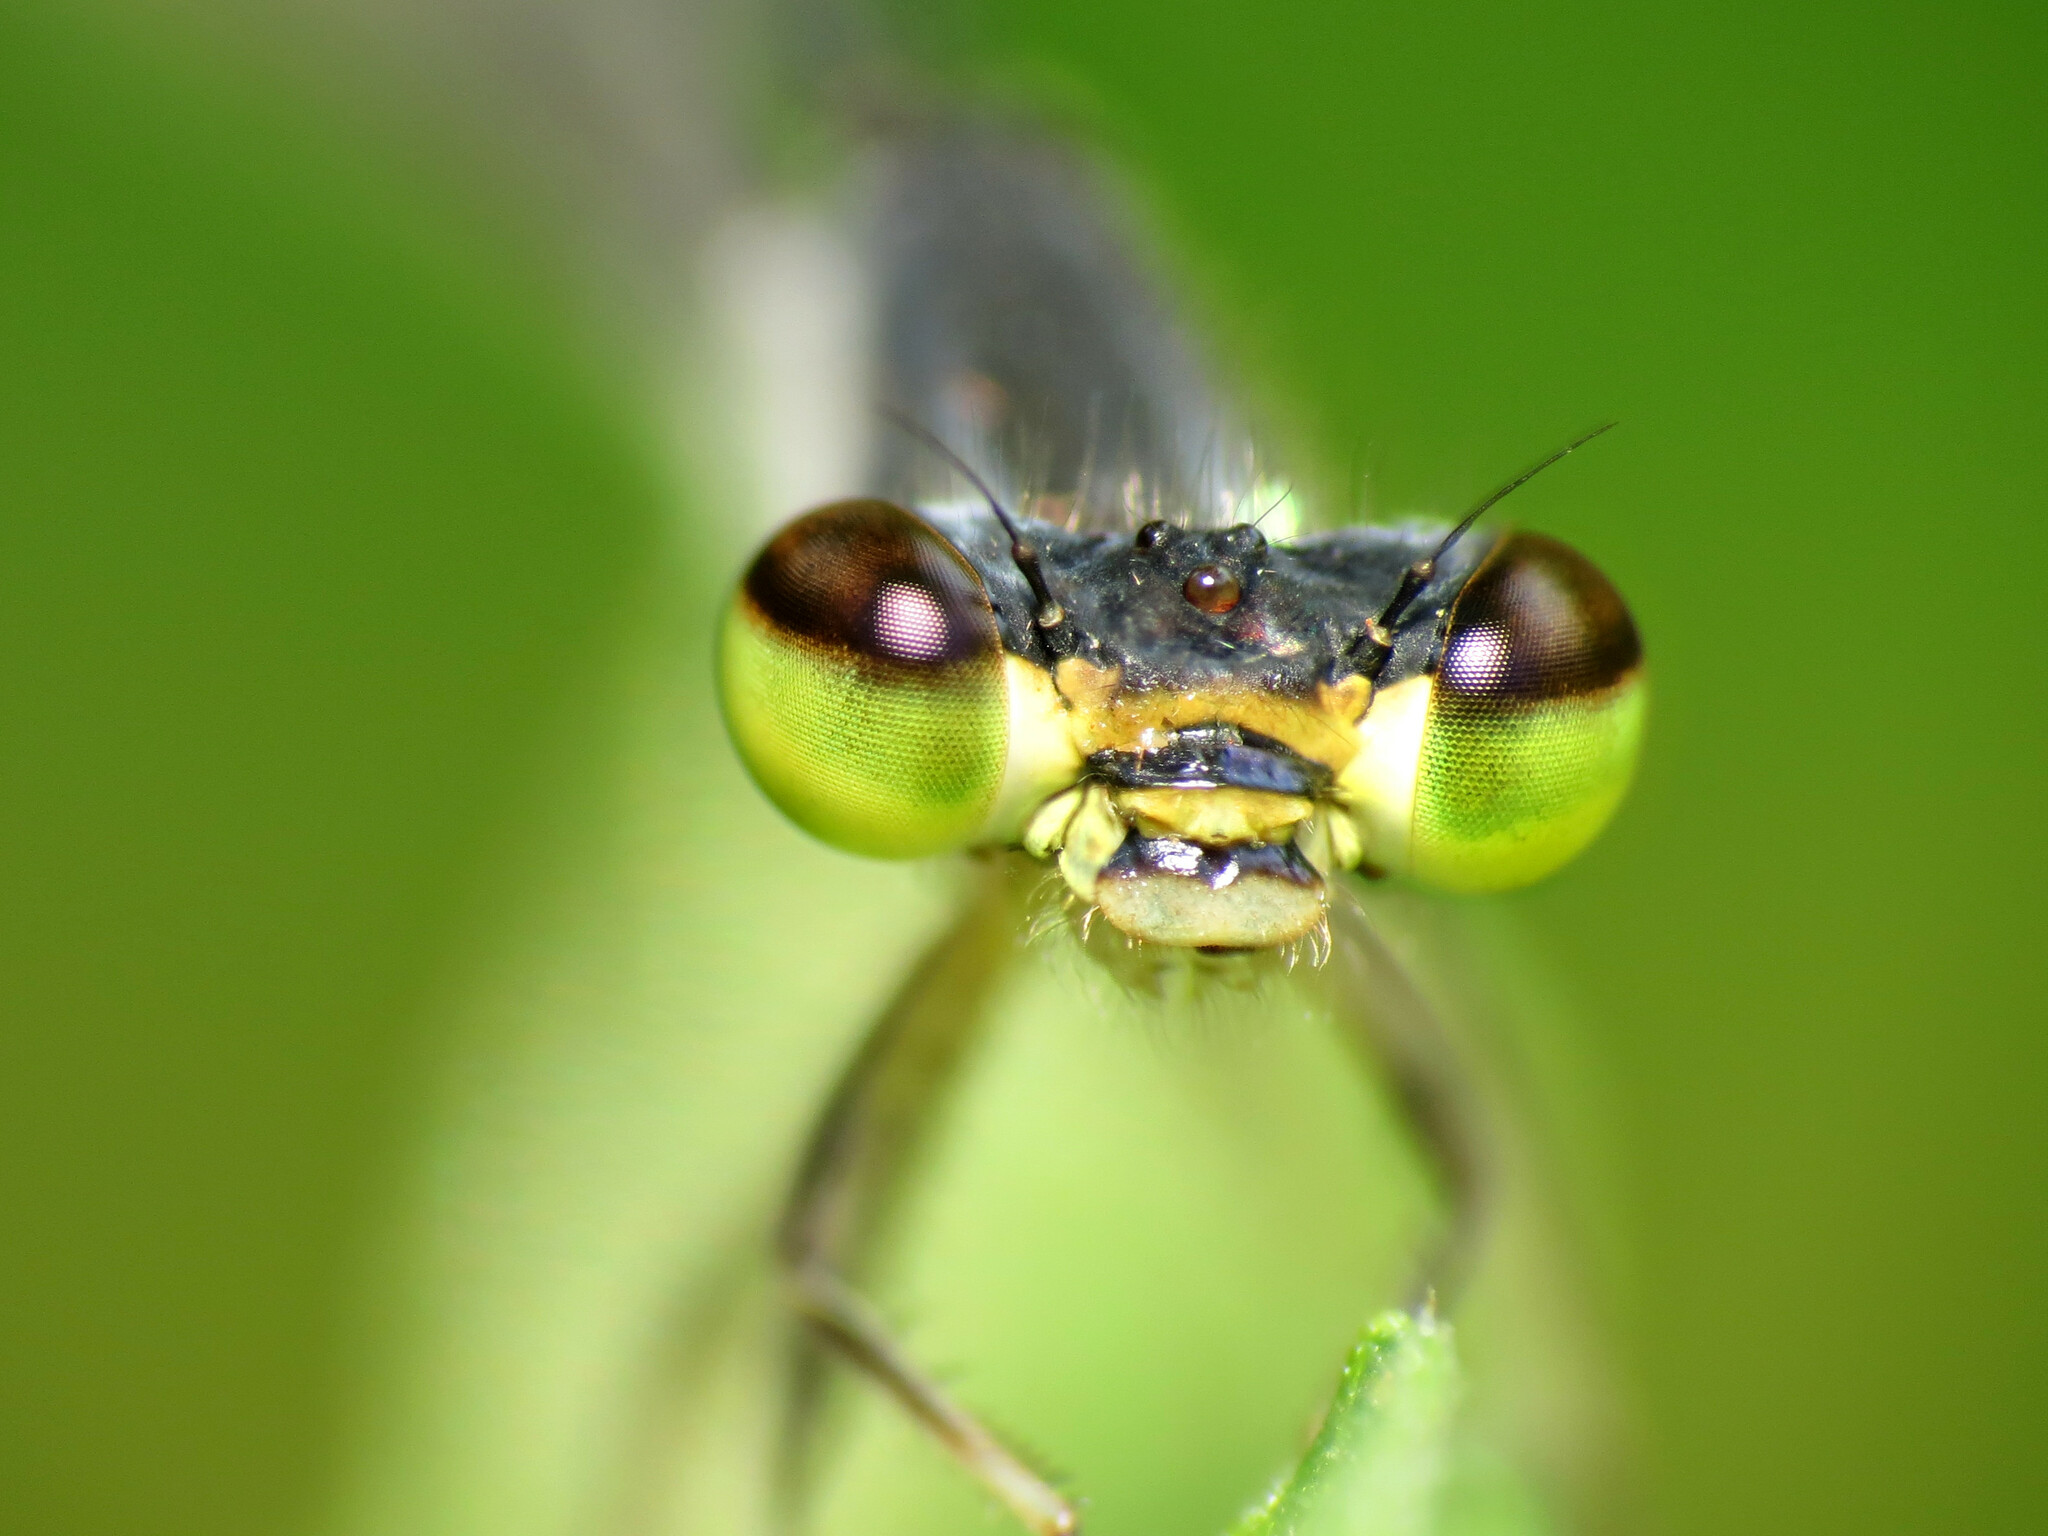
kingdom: Animalia
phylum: Arthropoda
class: Insecta
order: Odonata
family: Coenagrionidae
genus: Ischnura
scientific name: Ischnura posita
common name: Fragile forktail
